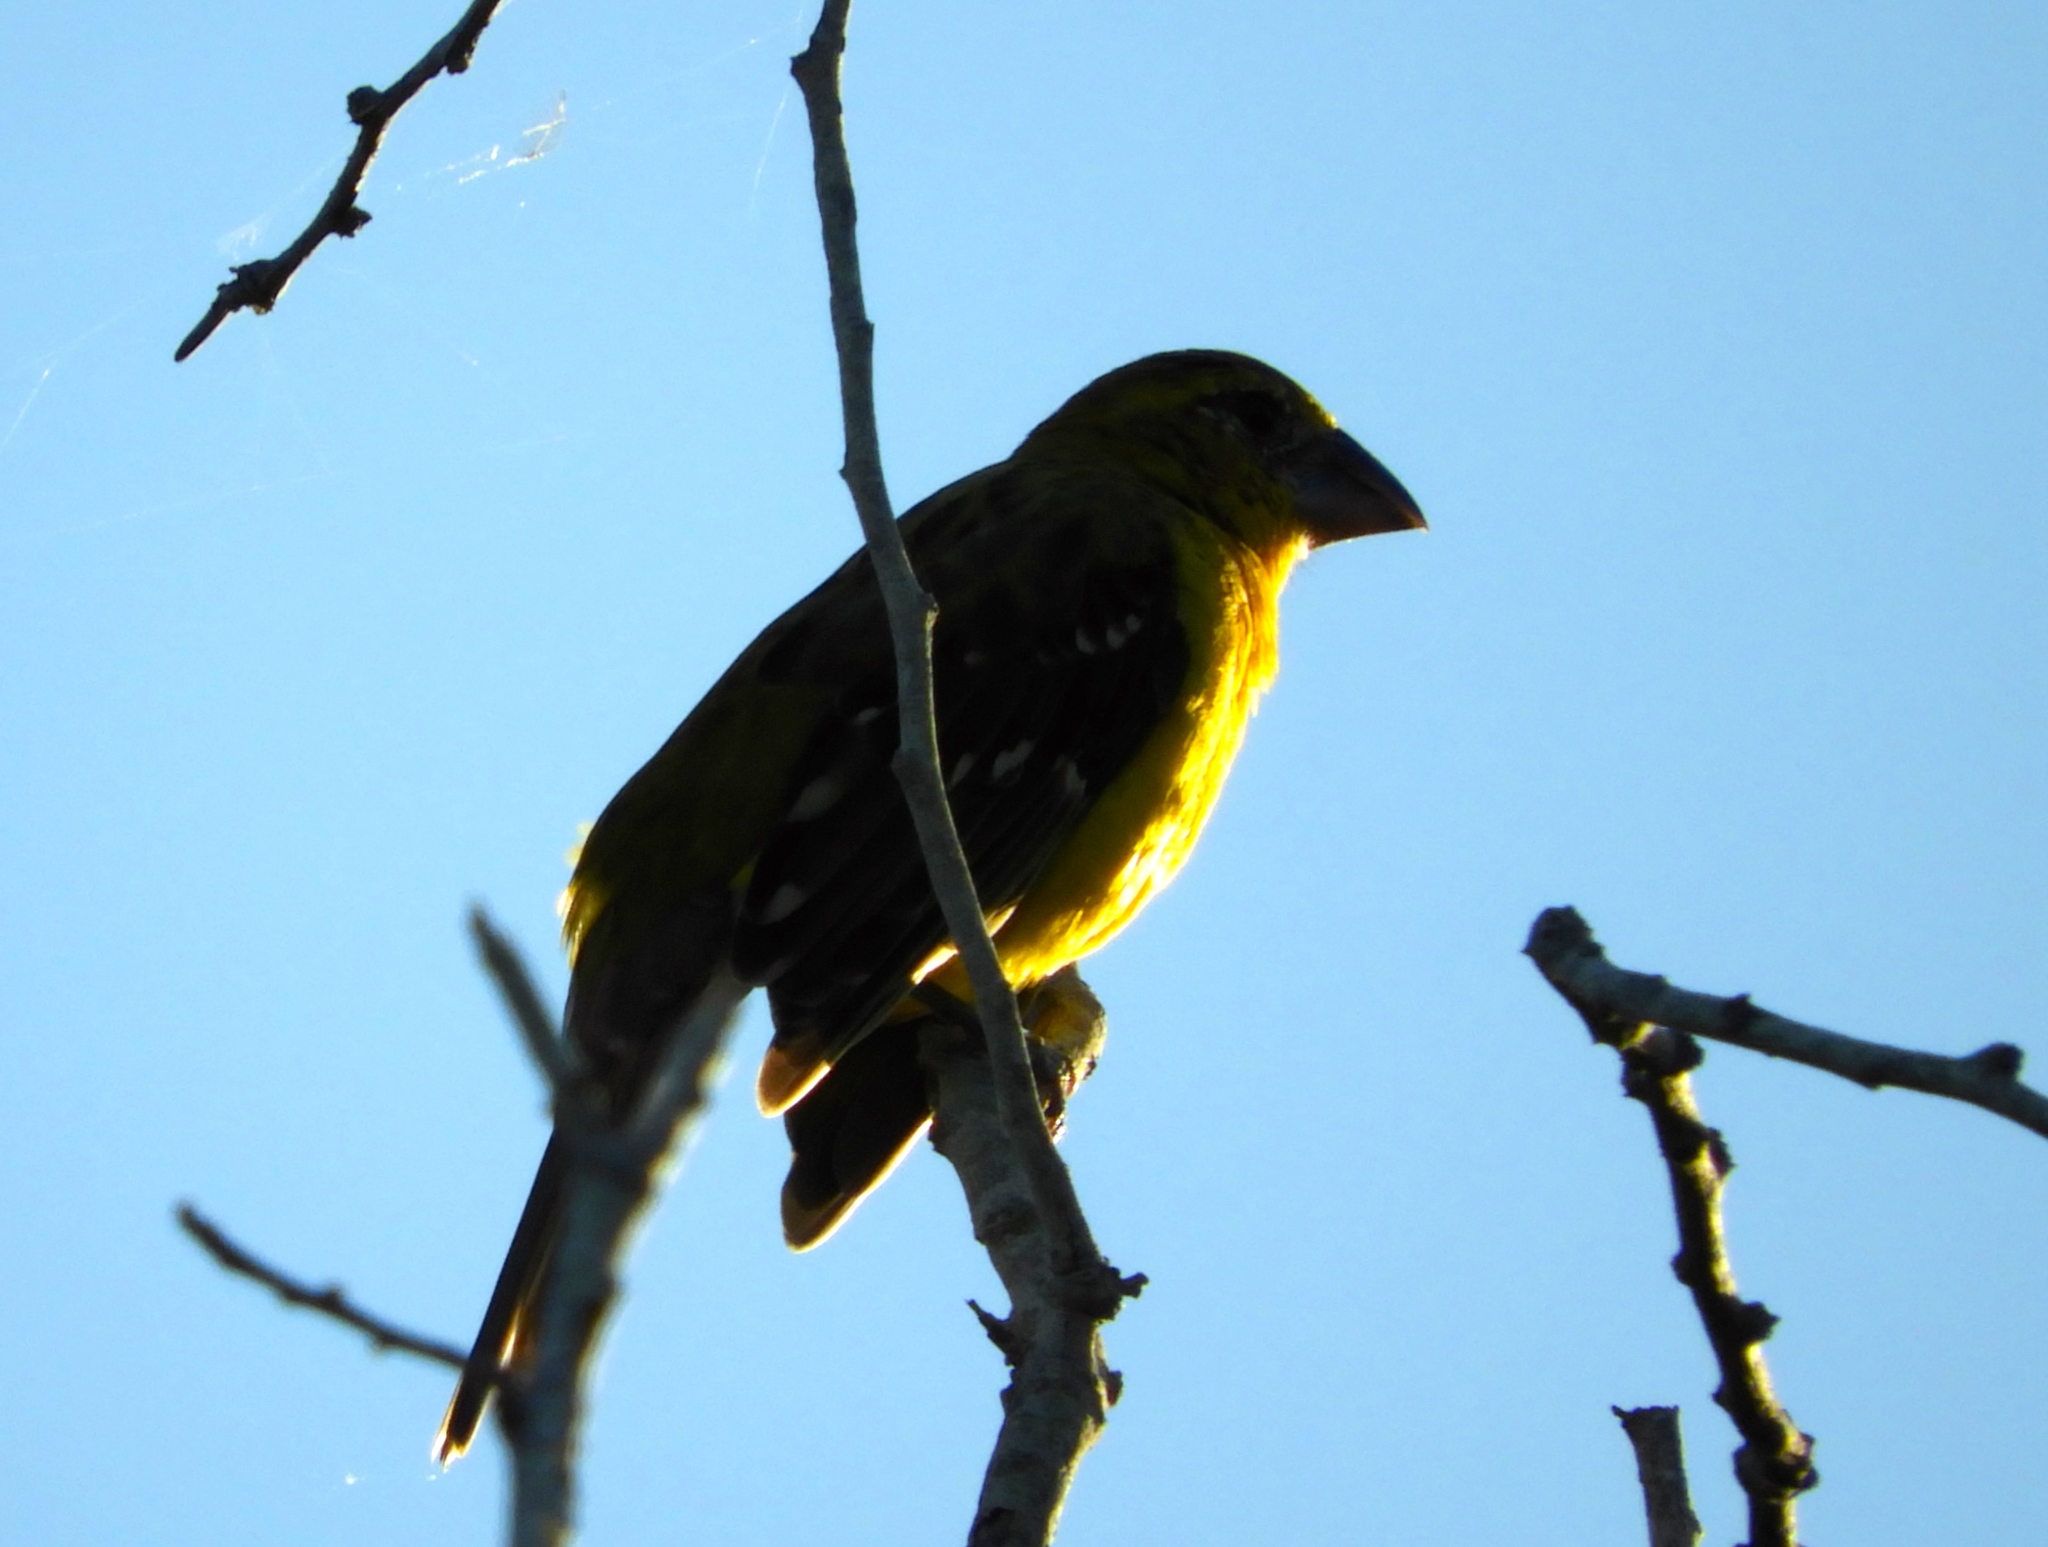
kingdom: Animalia
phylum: Chordata
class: Aves
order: Passeriformes
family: Cardinalidae
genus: Pheucticus
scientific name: Pheucticus chrysopeplus
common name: Yellow grosbeak
